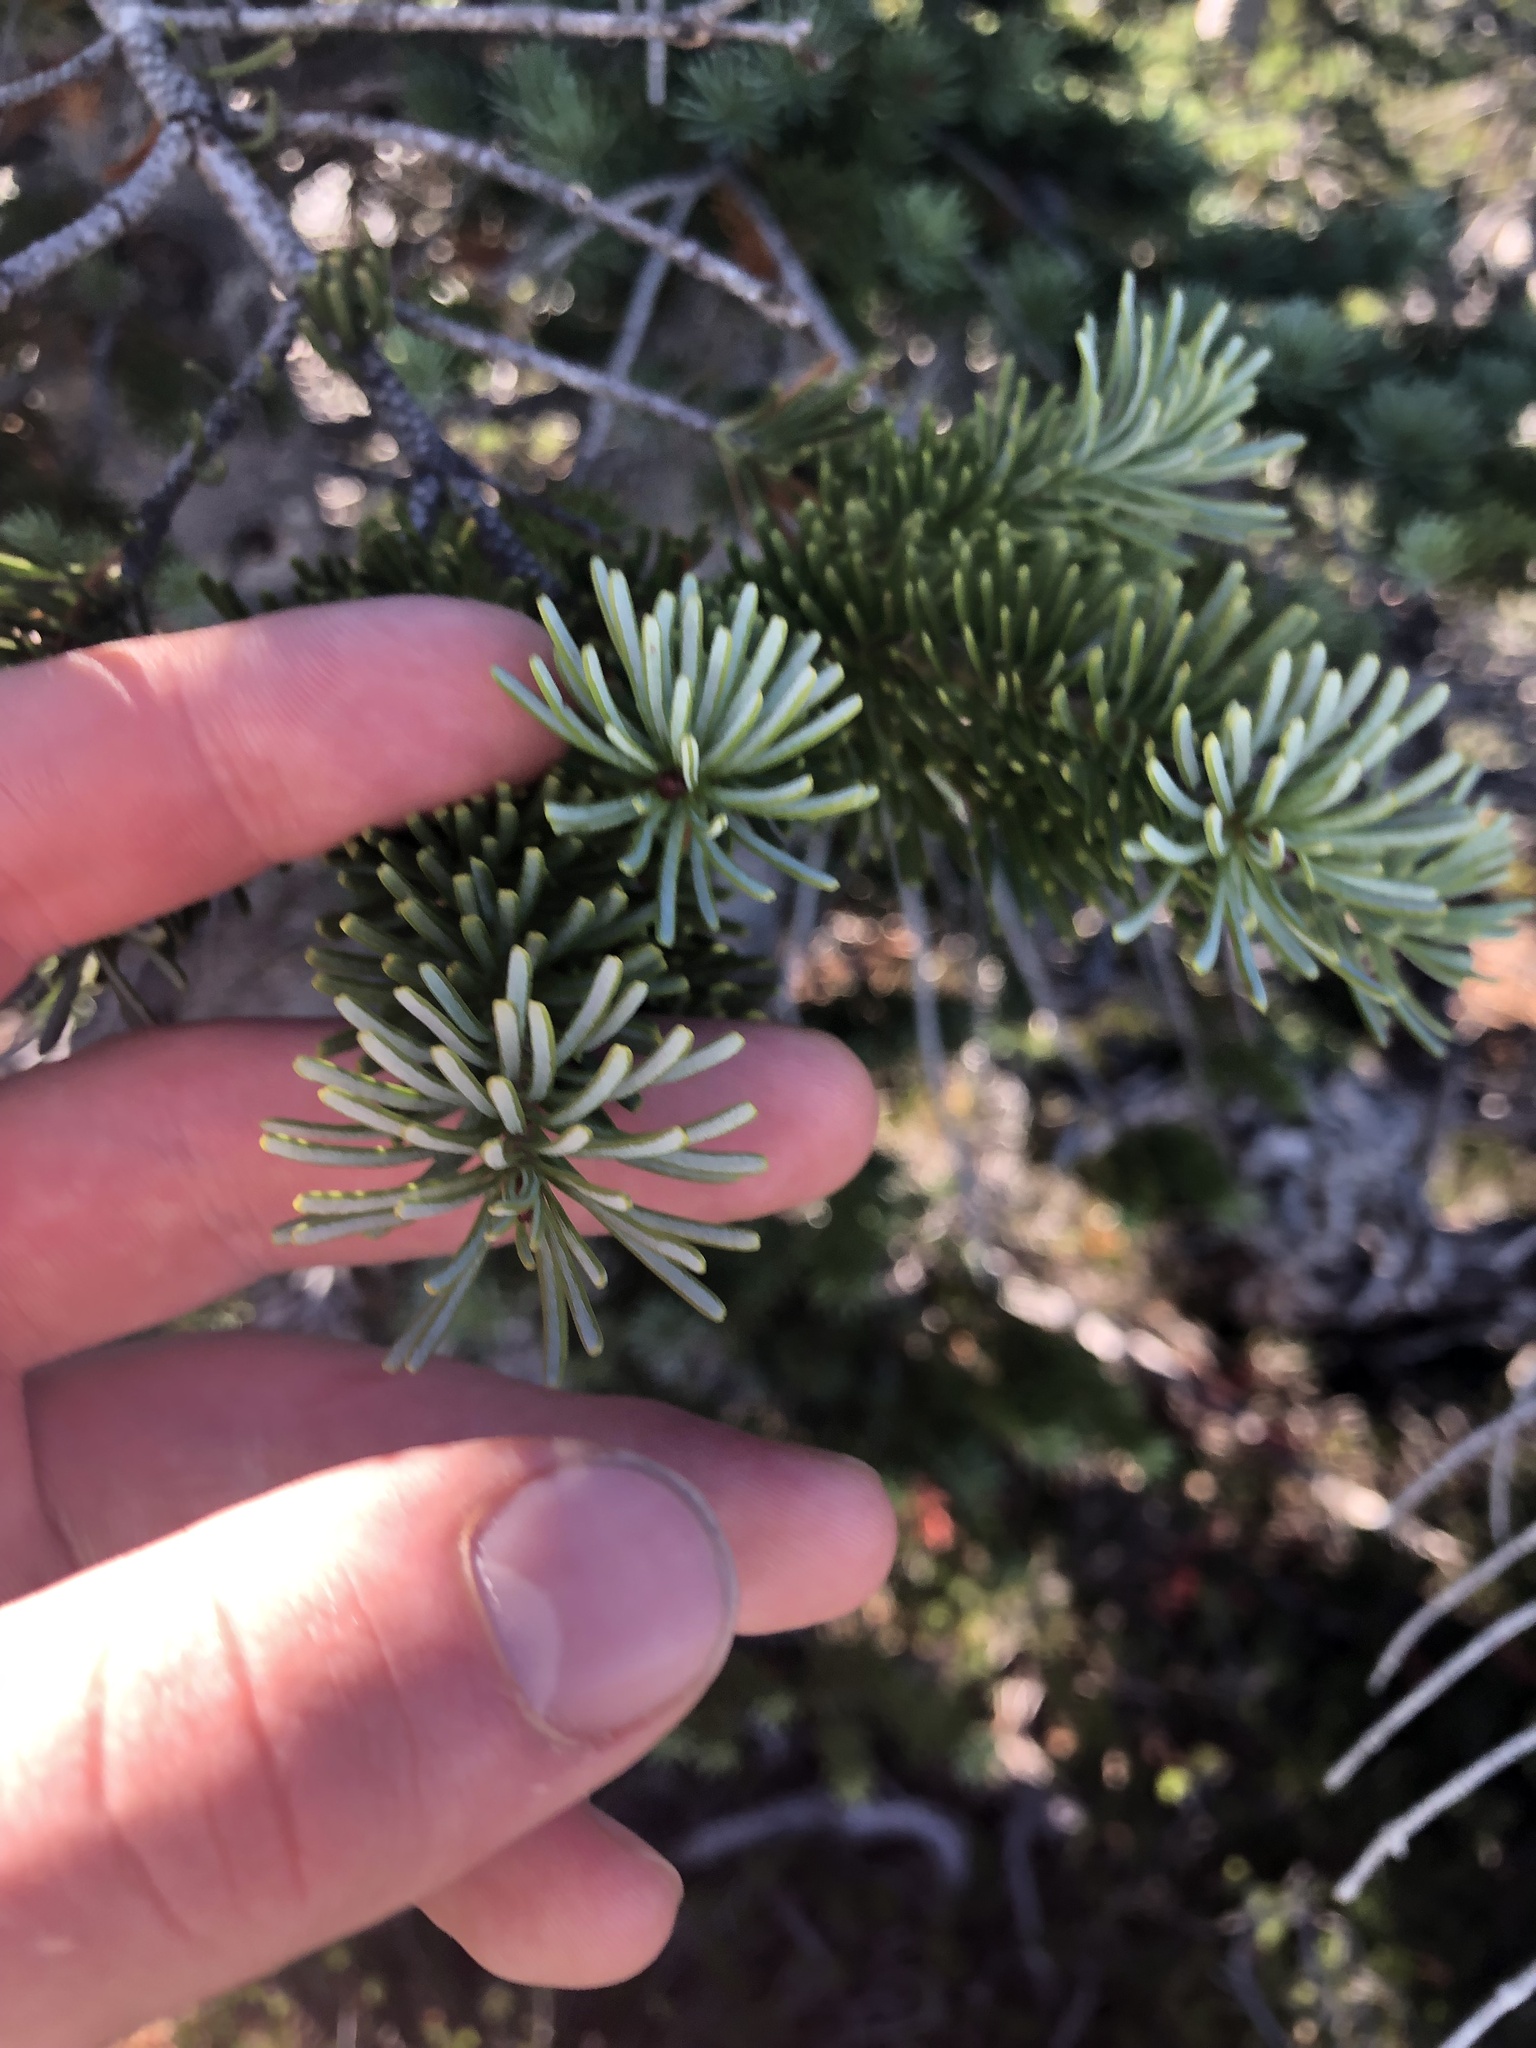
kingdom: Plantae
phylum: Tracheophyta
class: Pinopsida
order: Pinales
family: Pinaceae
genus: Abies
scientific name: Abies lasiocarpa
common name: Subalpine fir
